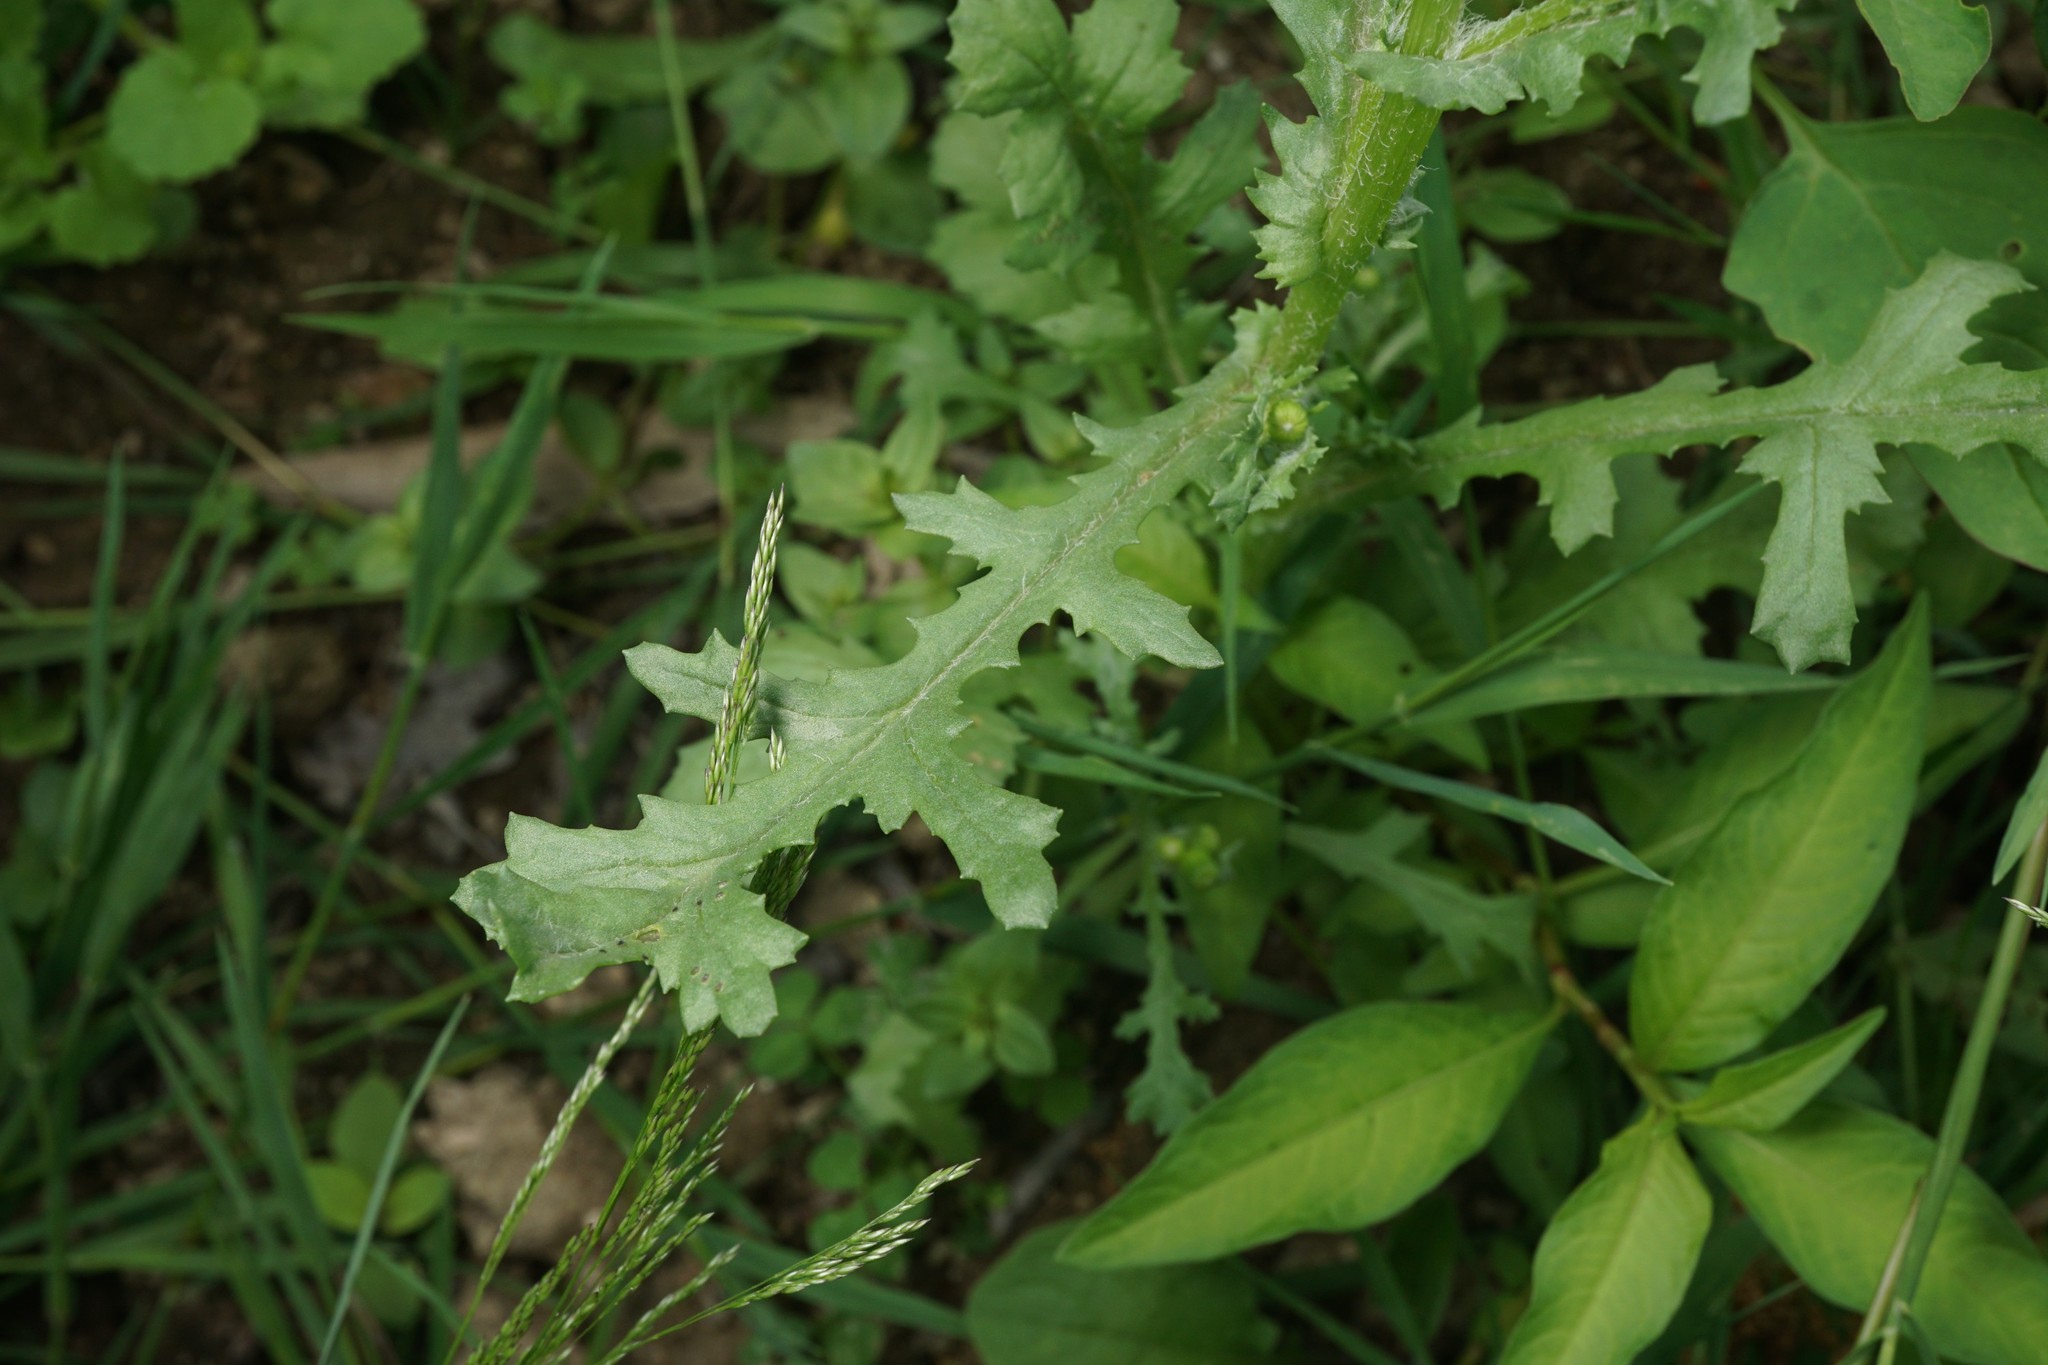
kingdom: Plantae
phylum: Tracheophyta
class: Magnoliopsida
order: Asterales
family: Asteraceae
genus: Senecio
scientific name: Senecio vulgaris
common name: Old-man-in-the-spring
